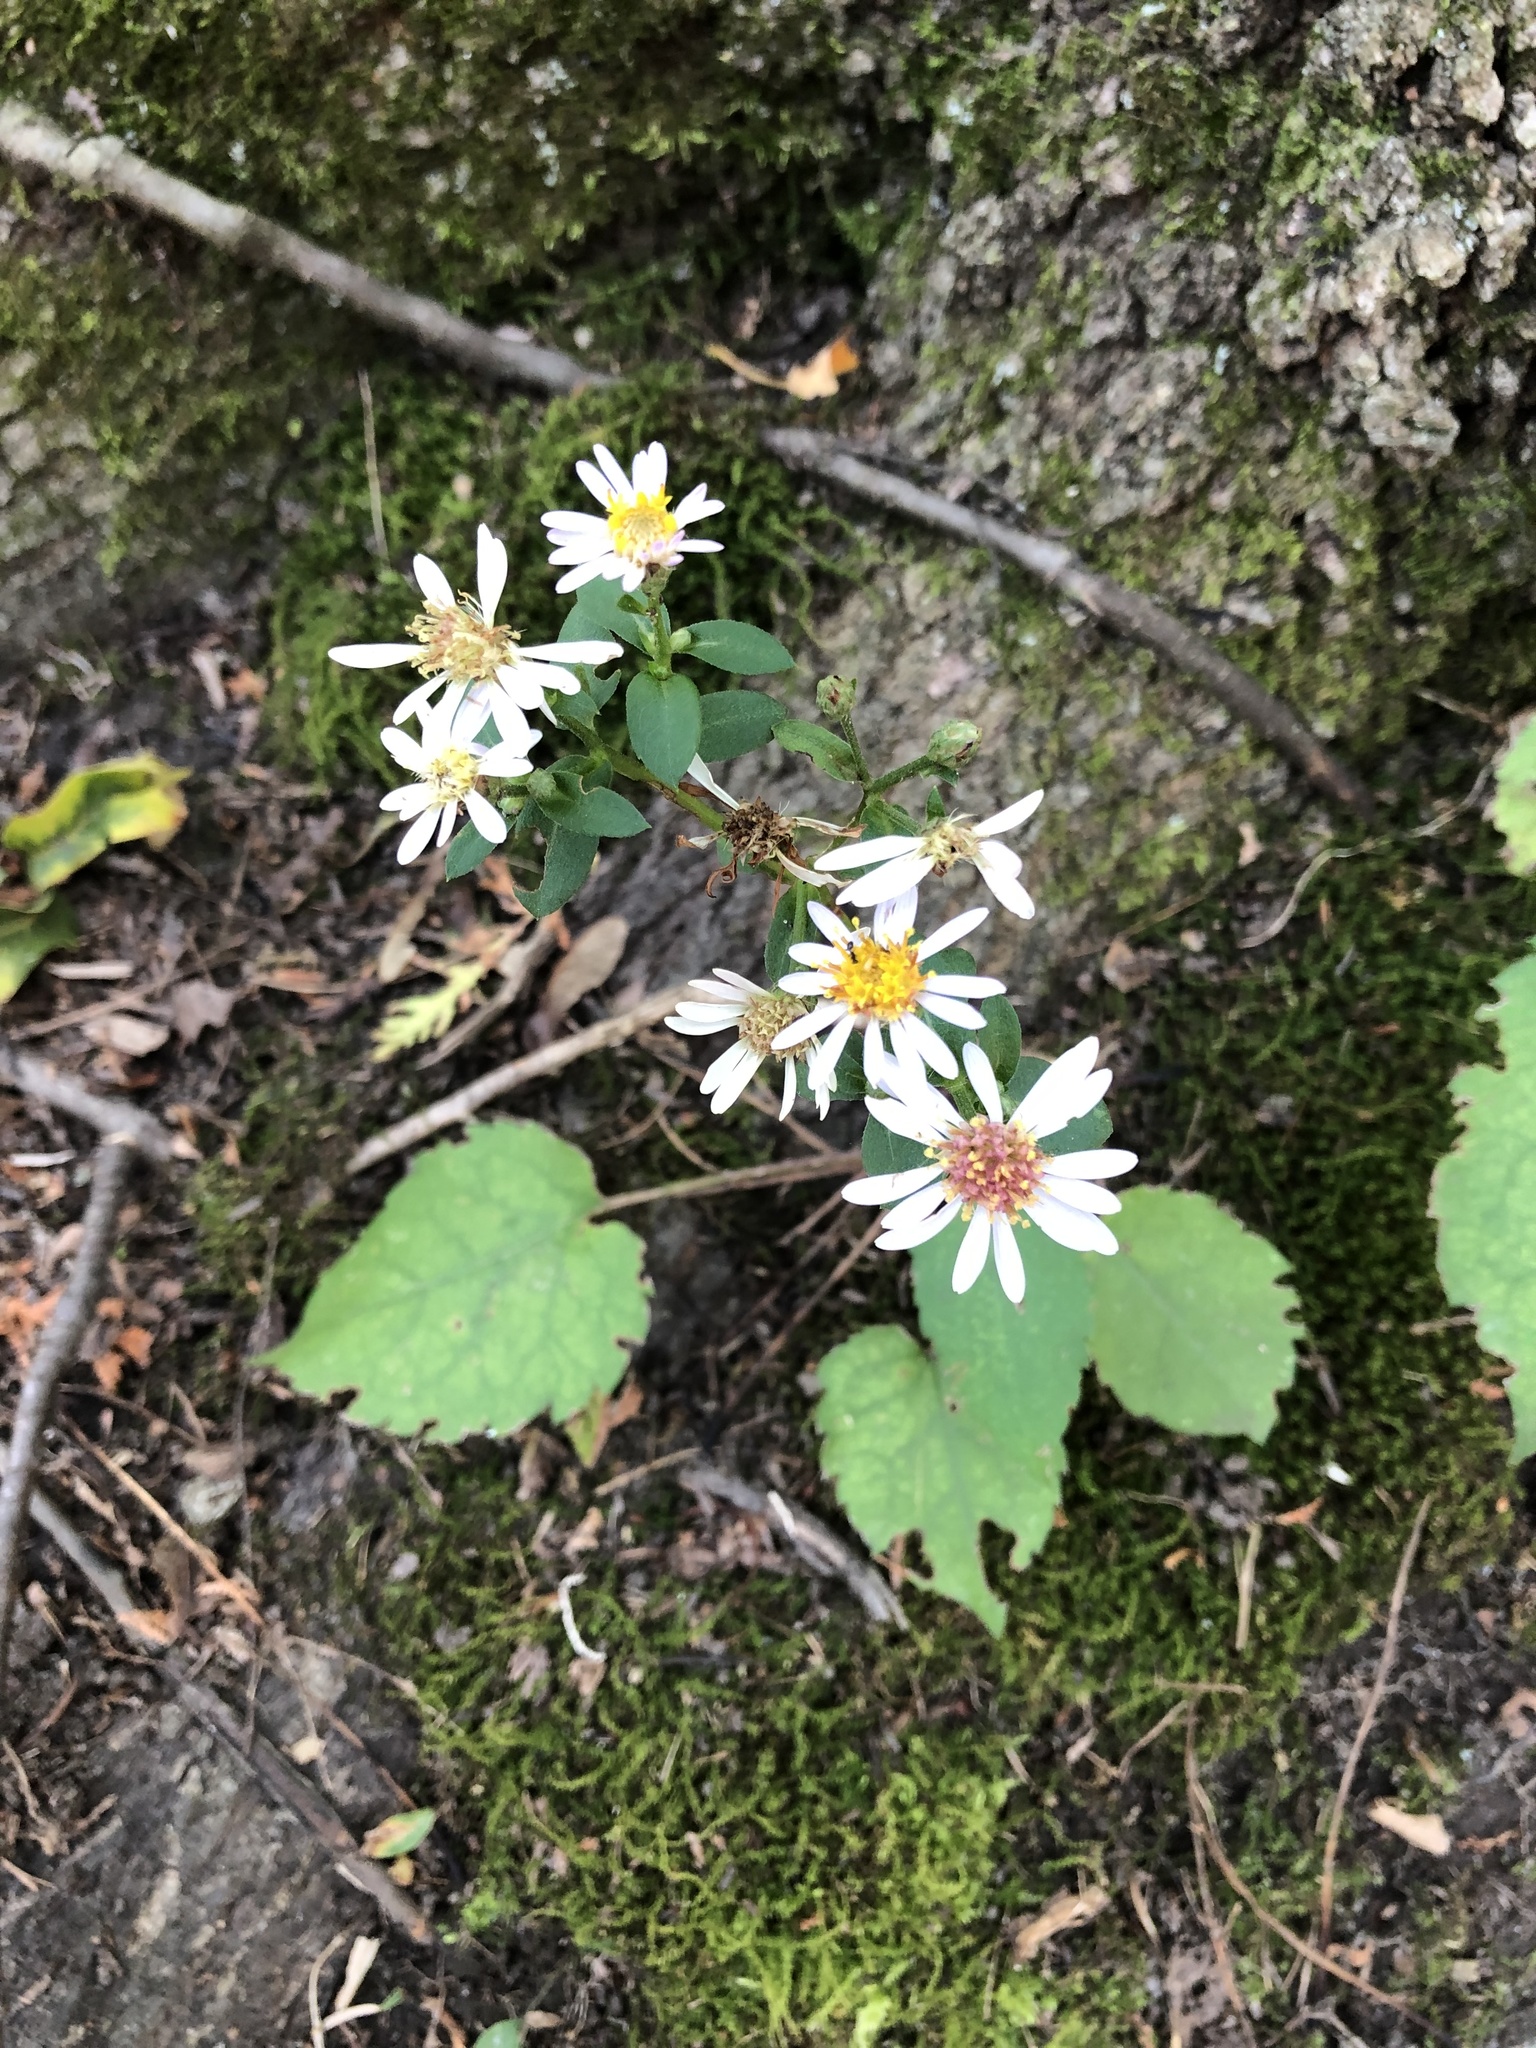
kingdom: Plantae
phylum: Tracheophyta
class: Magnoliopsida
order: Asterales
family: Asteraceae
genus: Eurybia
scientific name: Eurybia macrophylla
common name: Big-leaved aster
